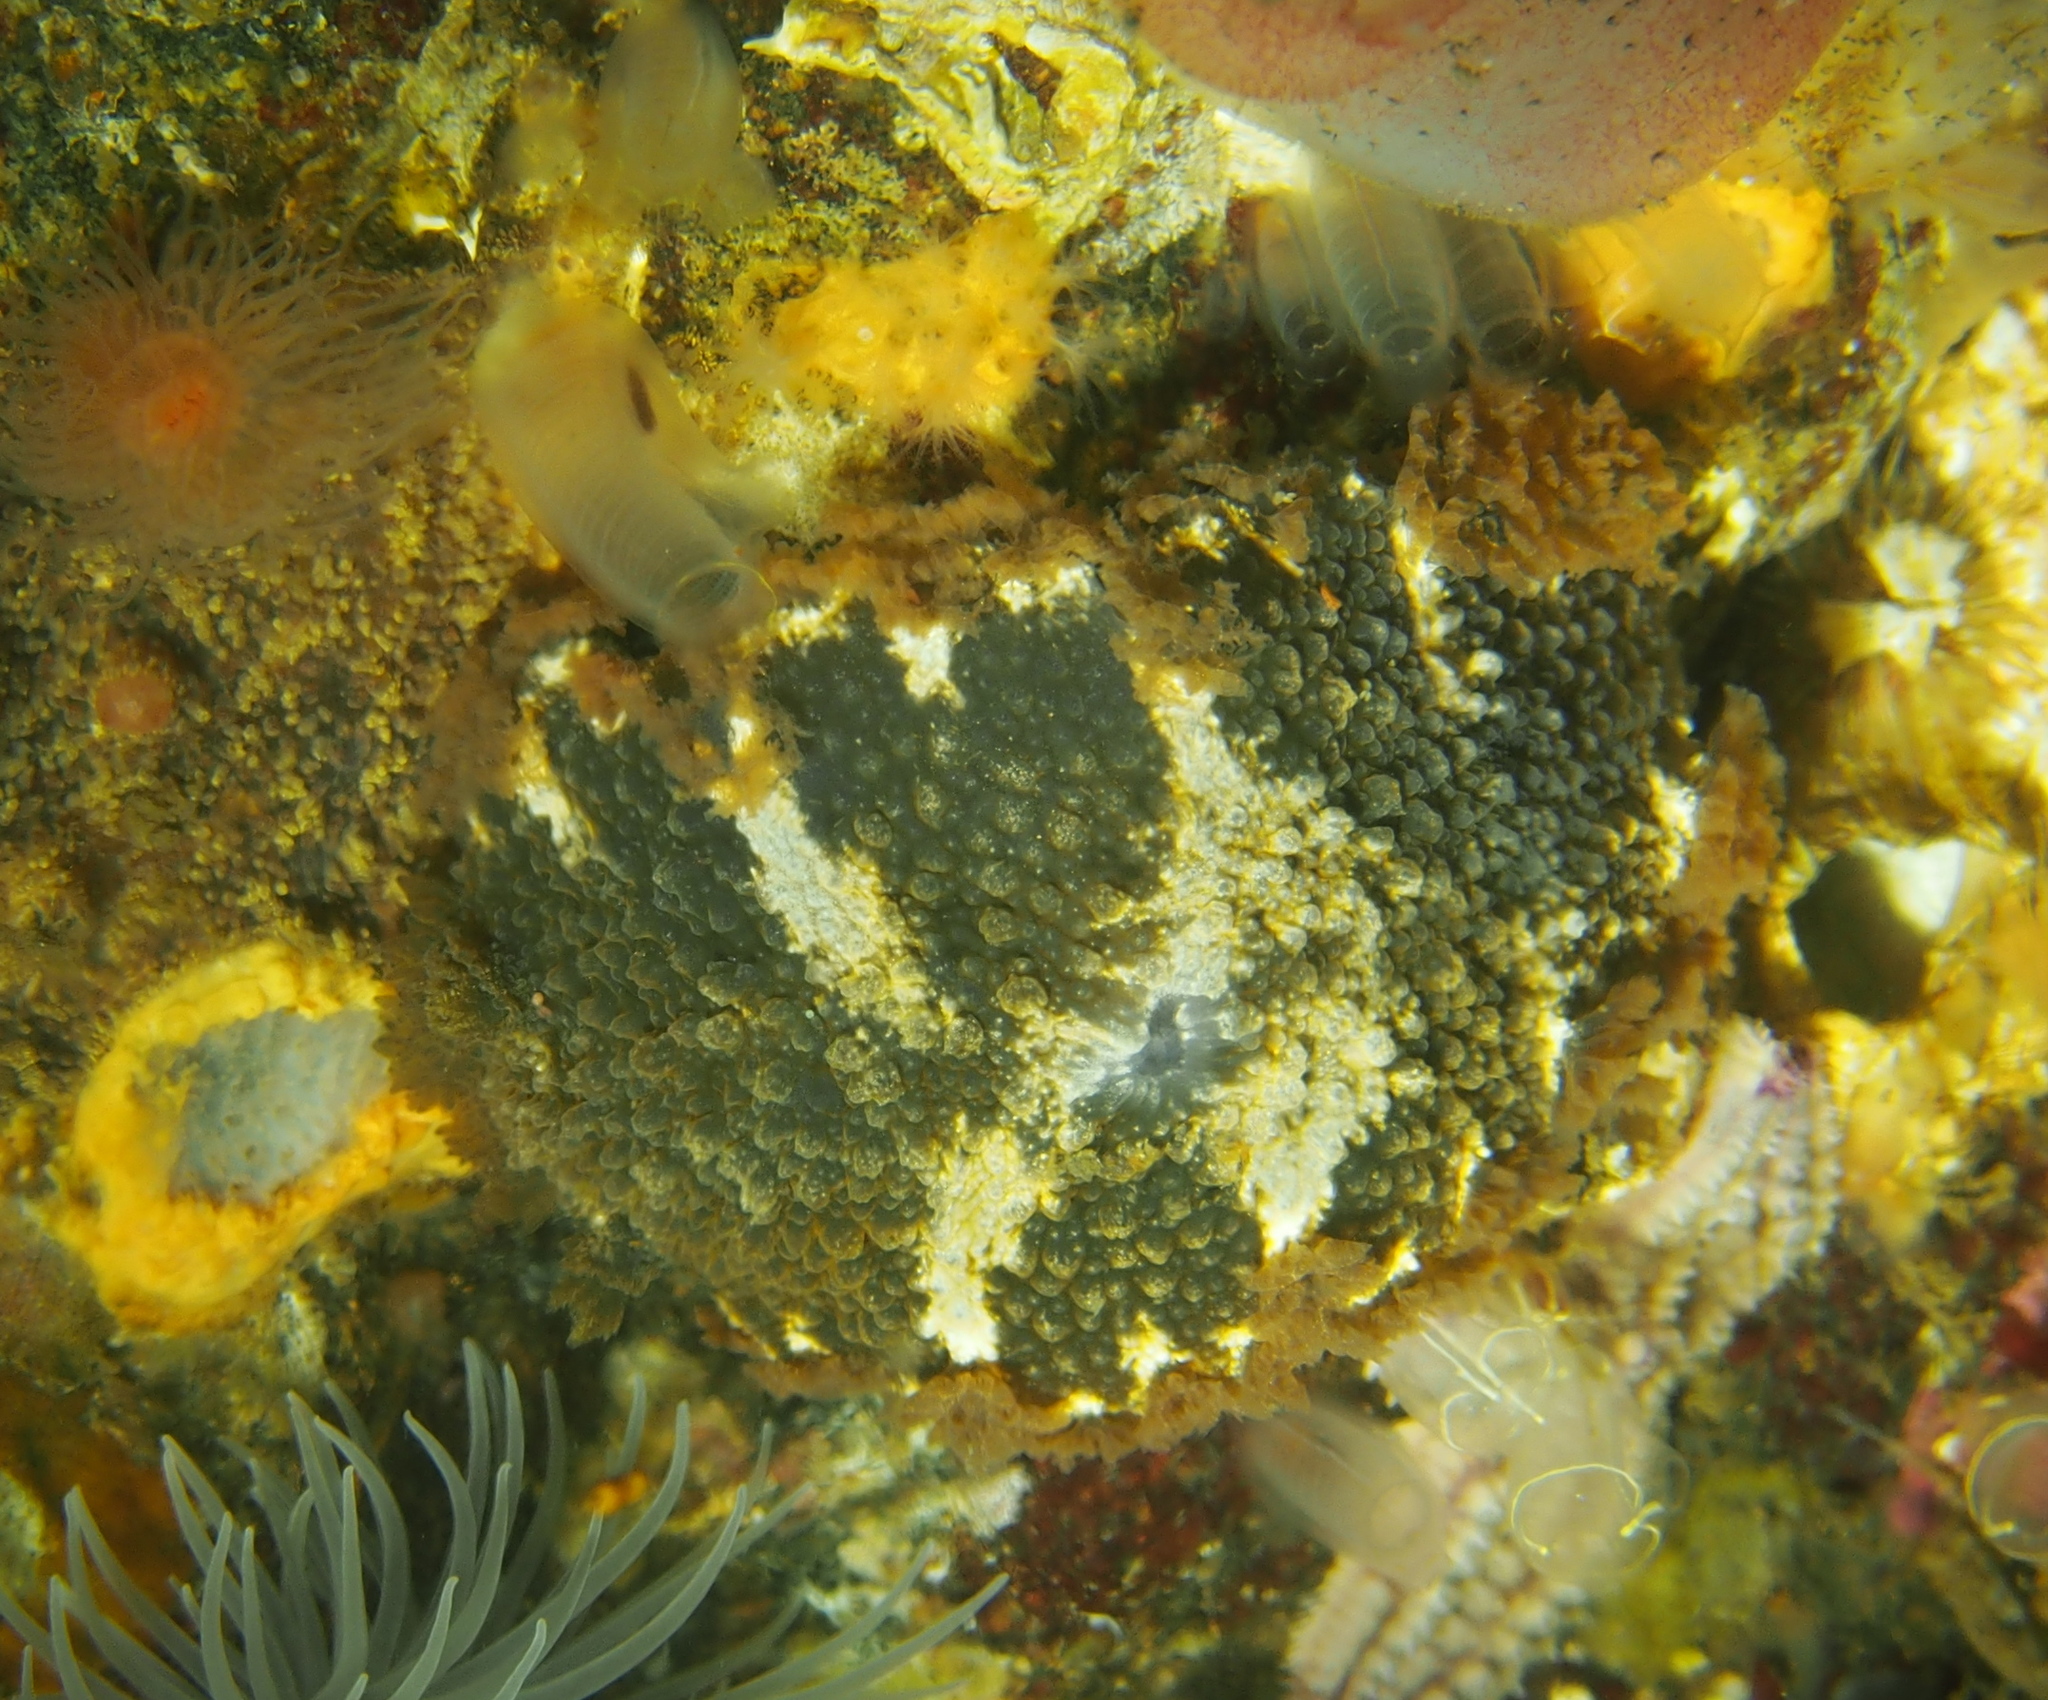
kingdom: Animalia
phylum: Mollusca
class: Gastropoda
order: Nudibranchia
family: Tritoniidae
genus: Tritonia
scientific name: Tritonia hombergii
